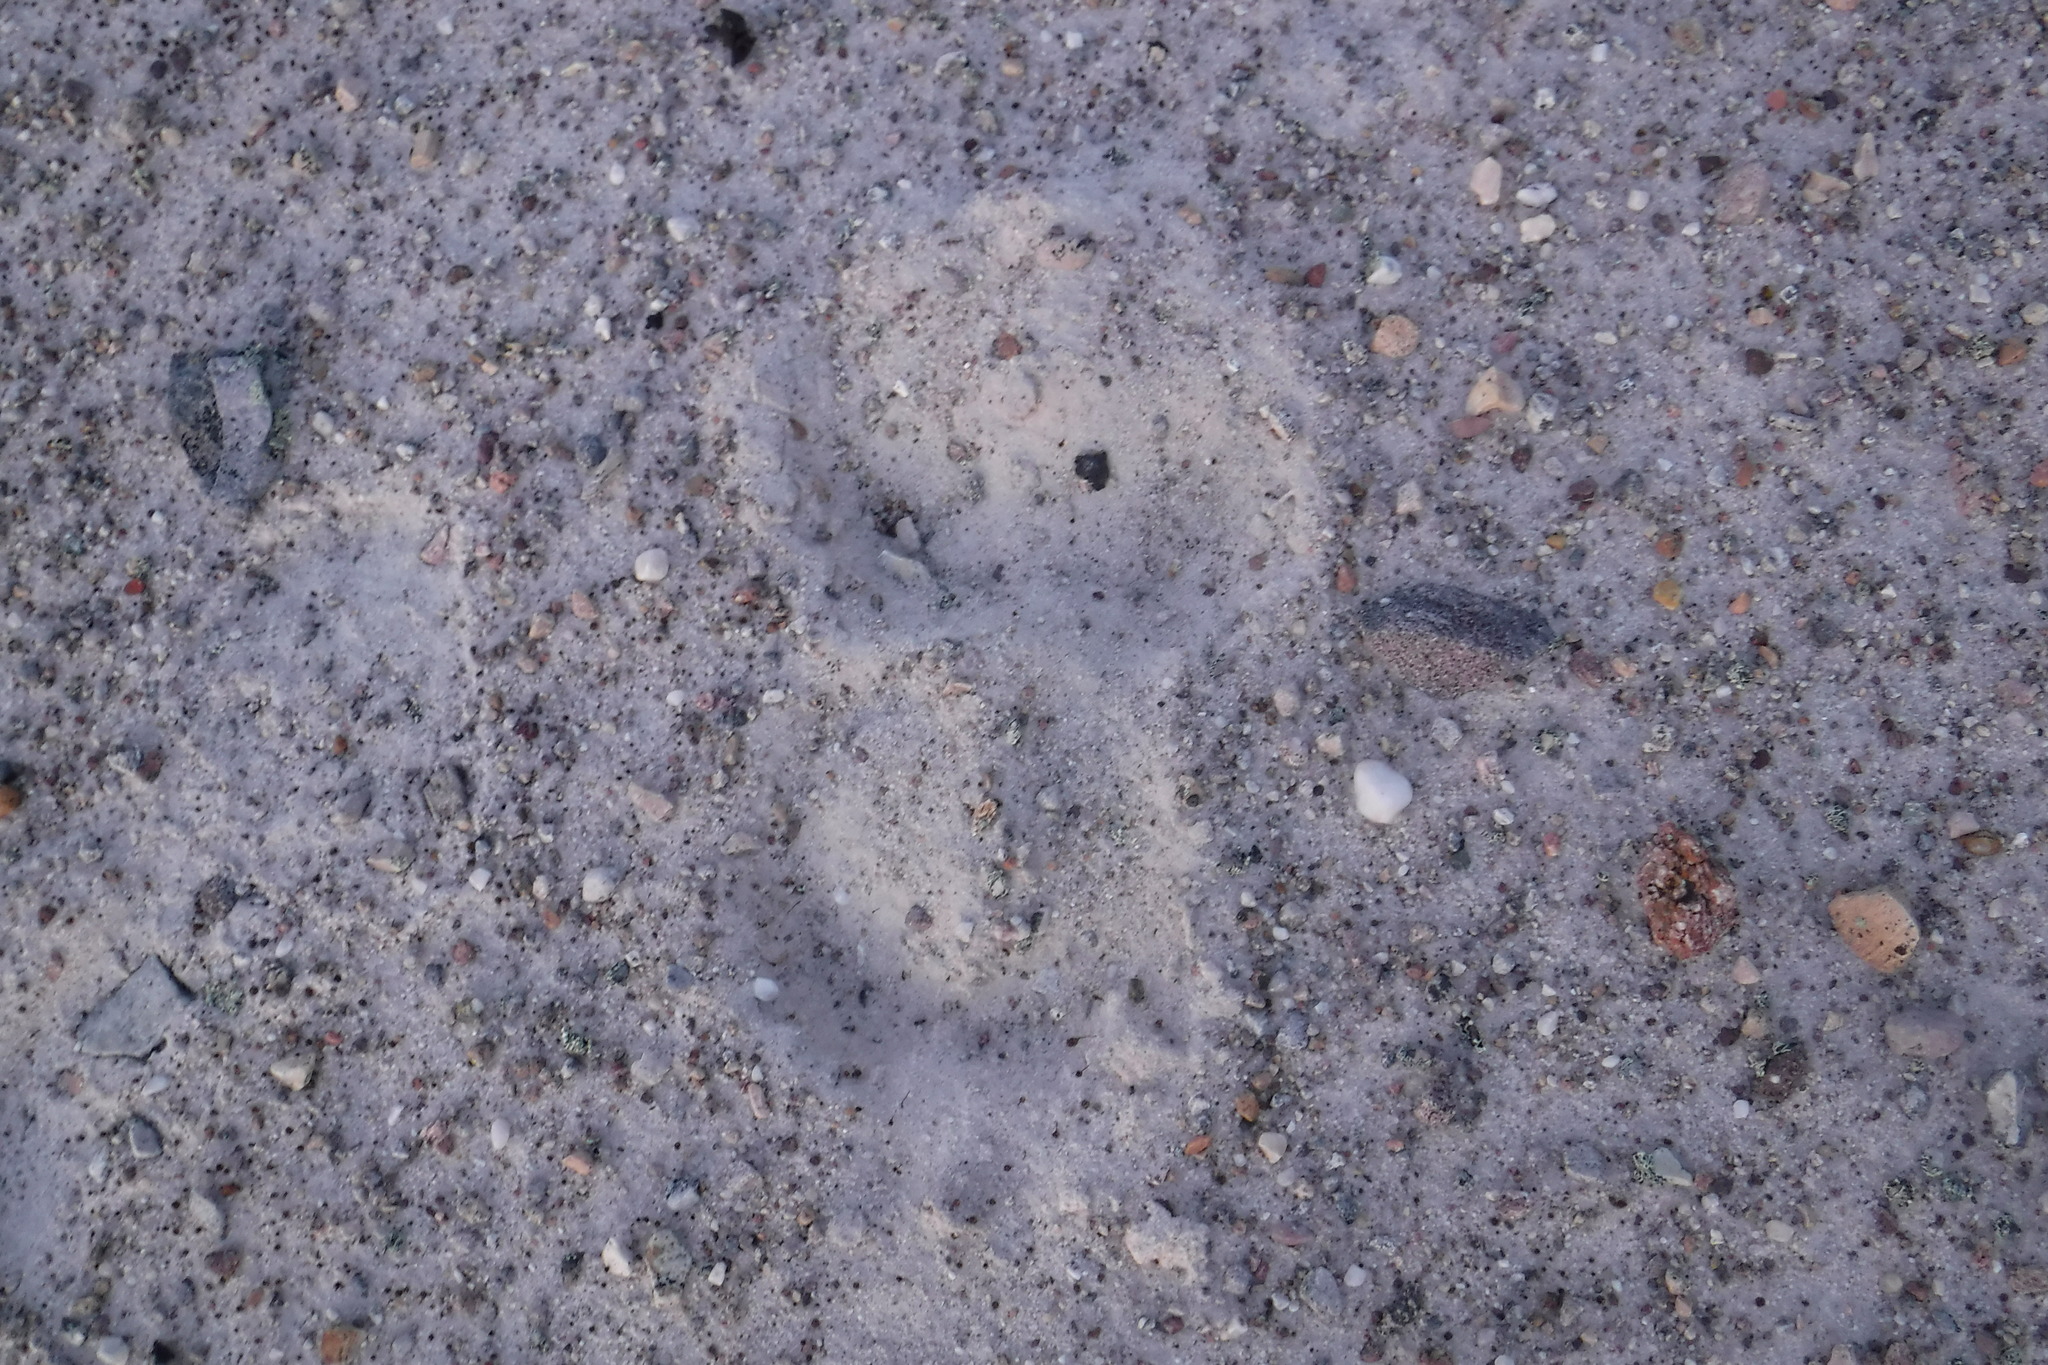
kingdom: Animalia
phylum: Chordata
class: Mammalia
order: Artiodactyla
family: Bovidae
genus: Ovibos
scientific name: Ovibos moschatus
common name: Muskox
